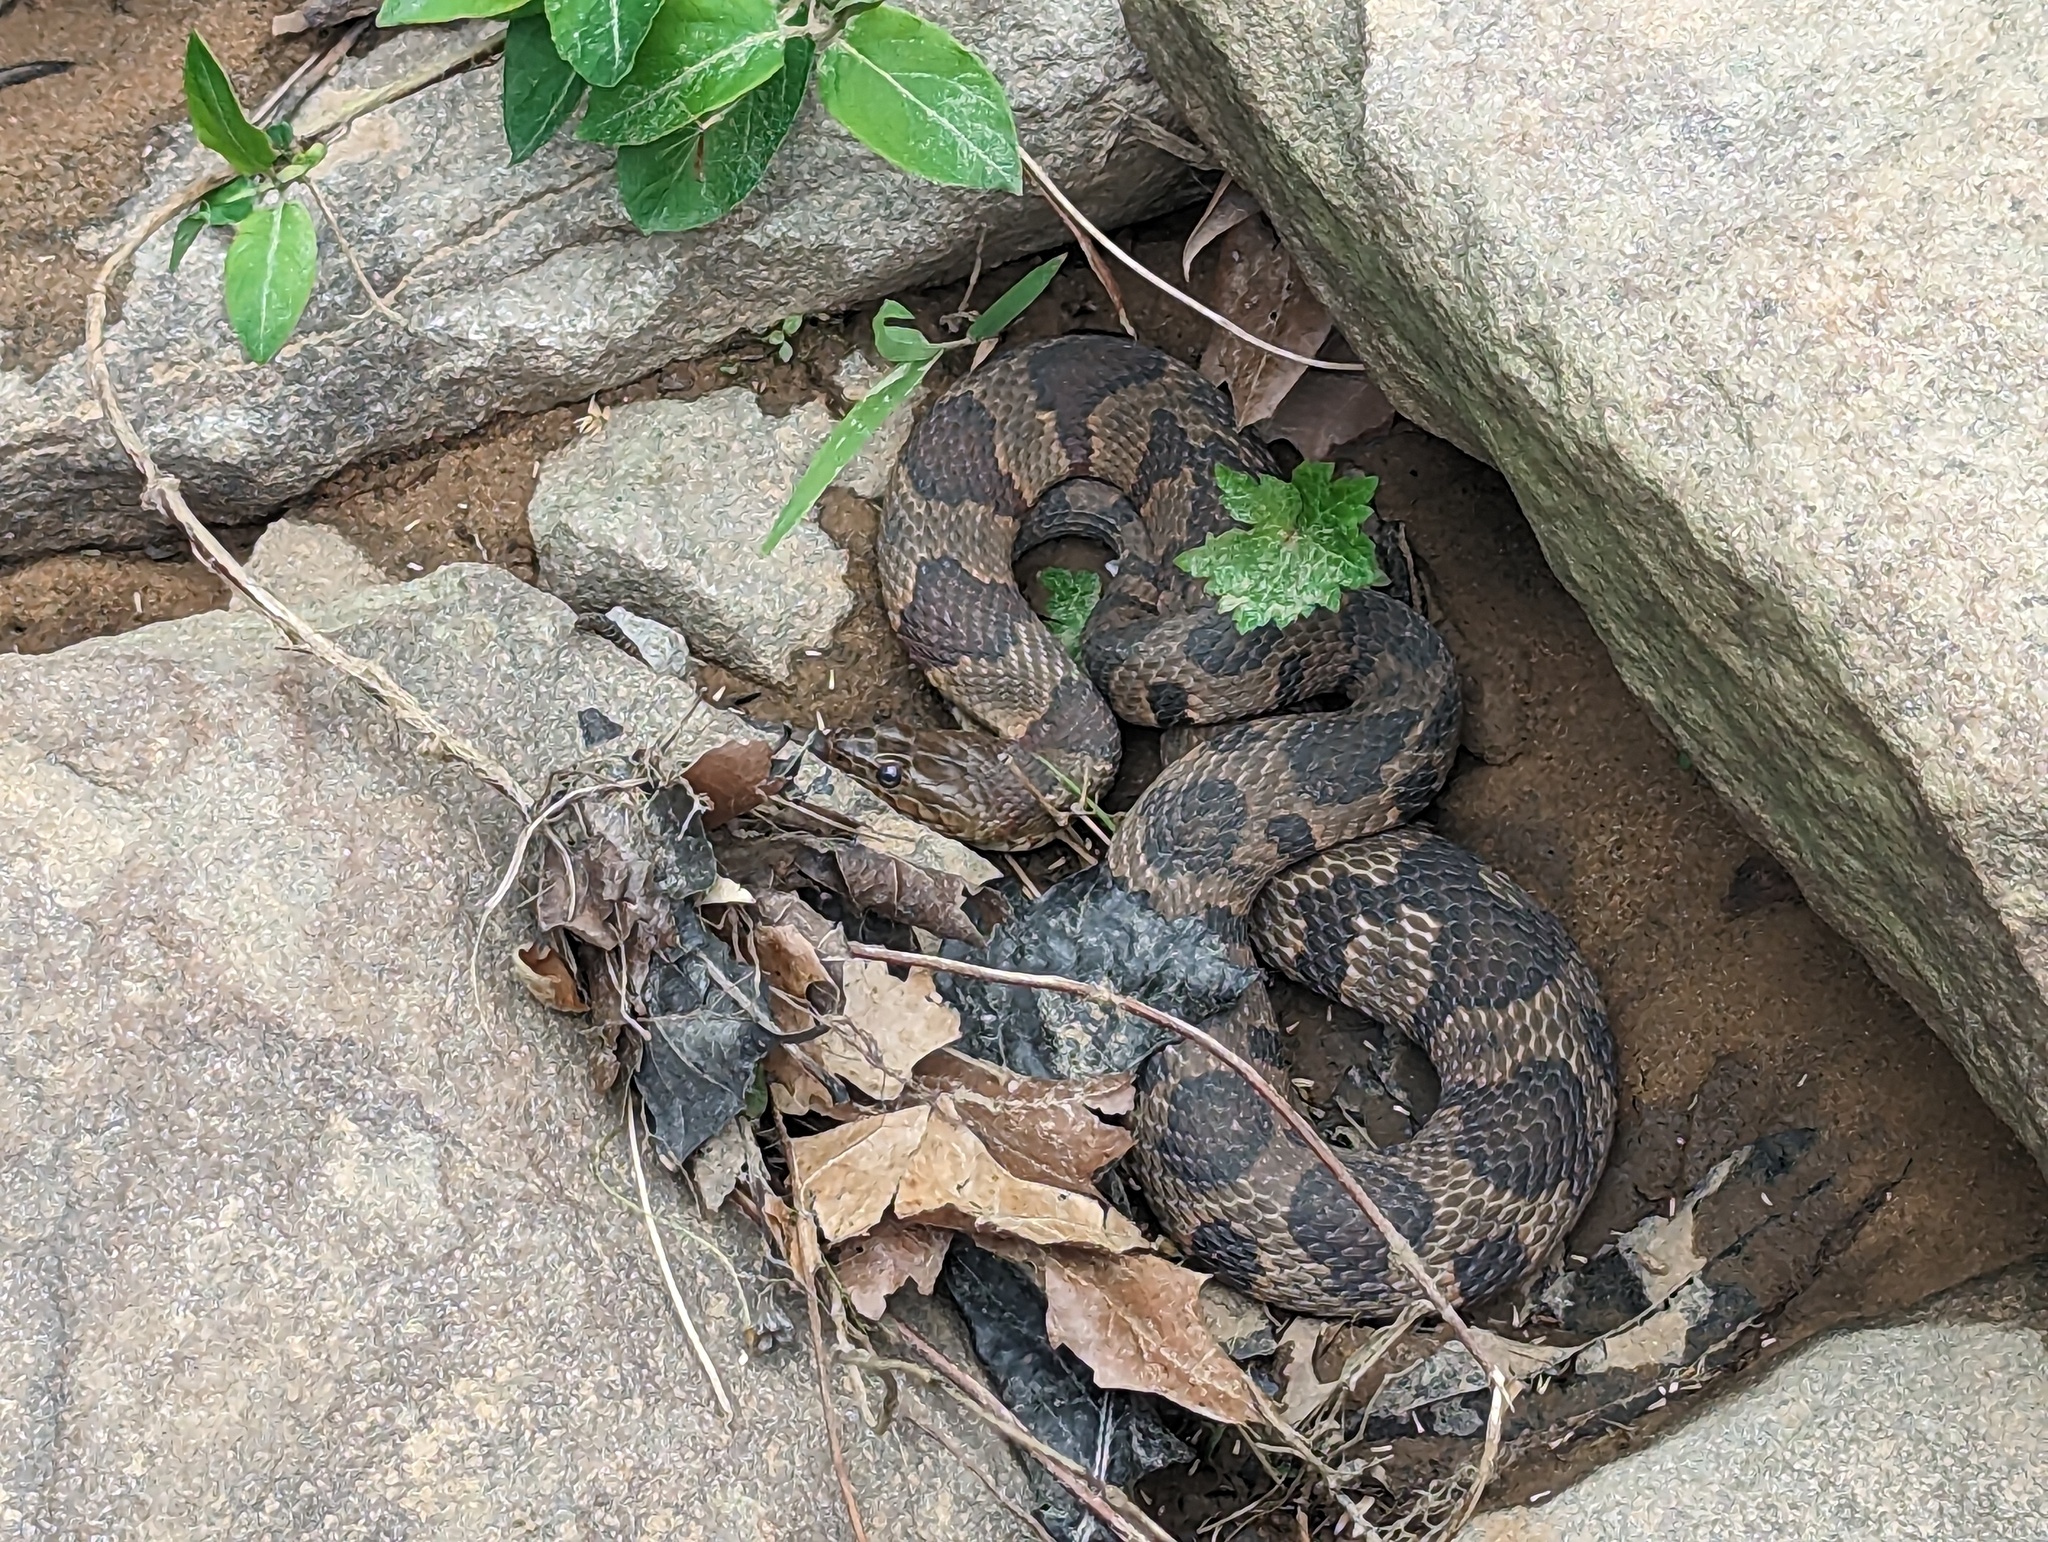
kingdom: Animalia
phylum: Chordata
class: Squamata
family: Colubridae
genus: Nerodia
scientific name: Nerodia sipedon
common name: Northern water snake
